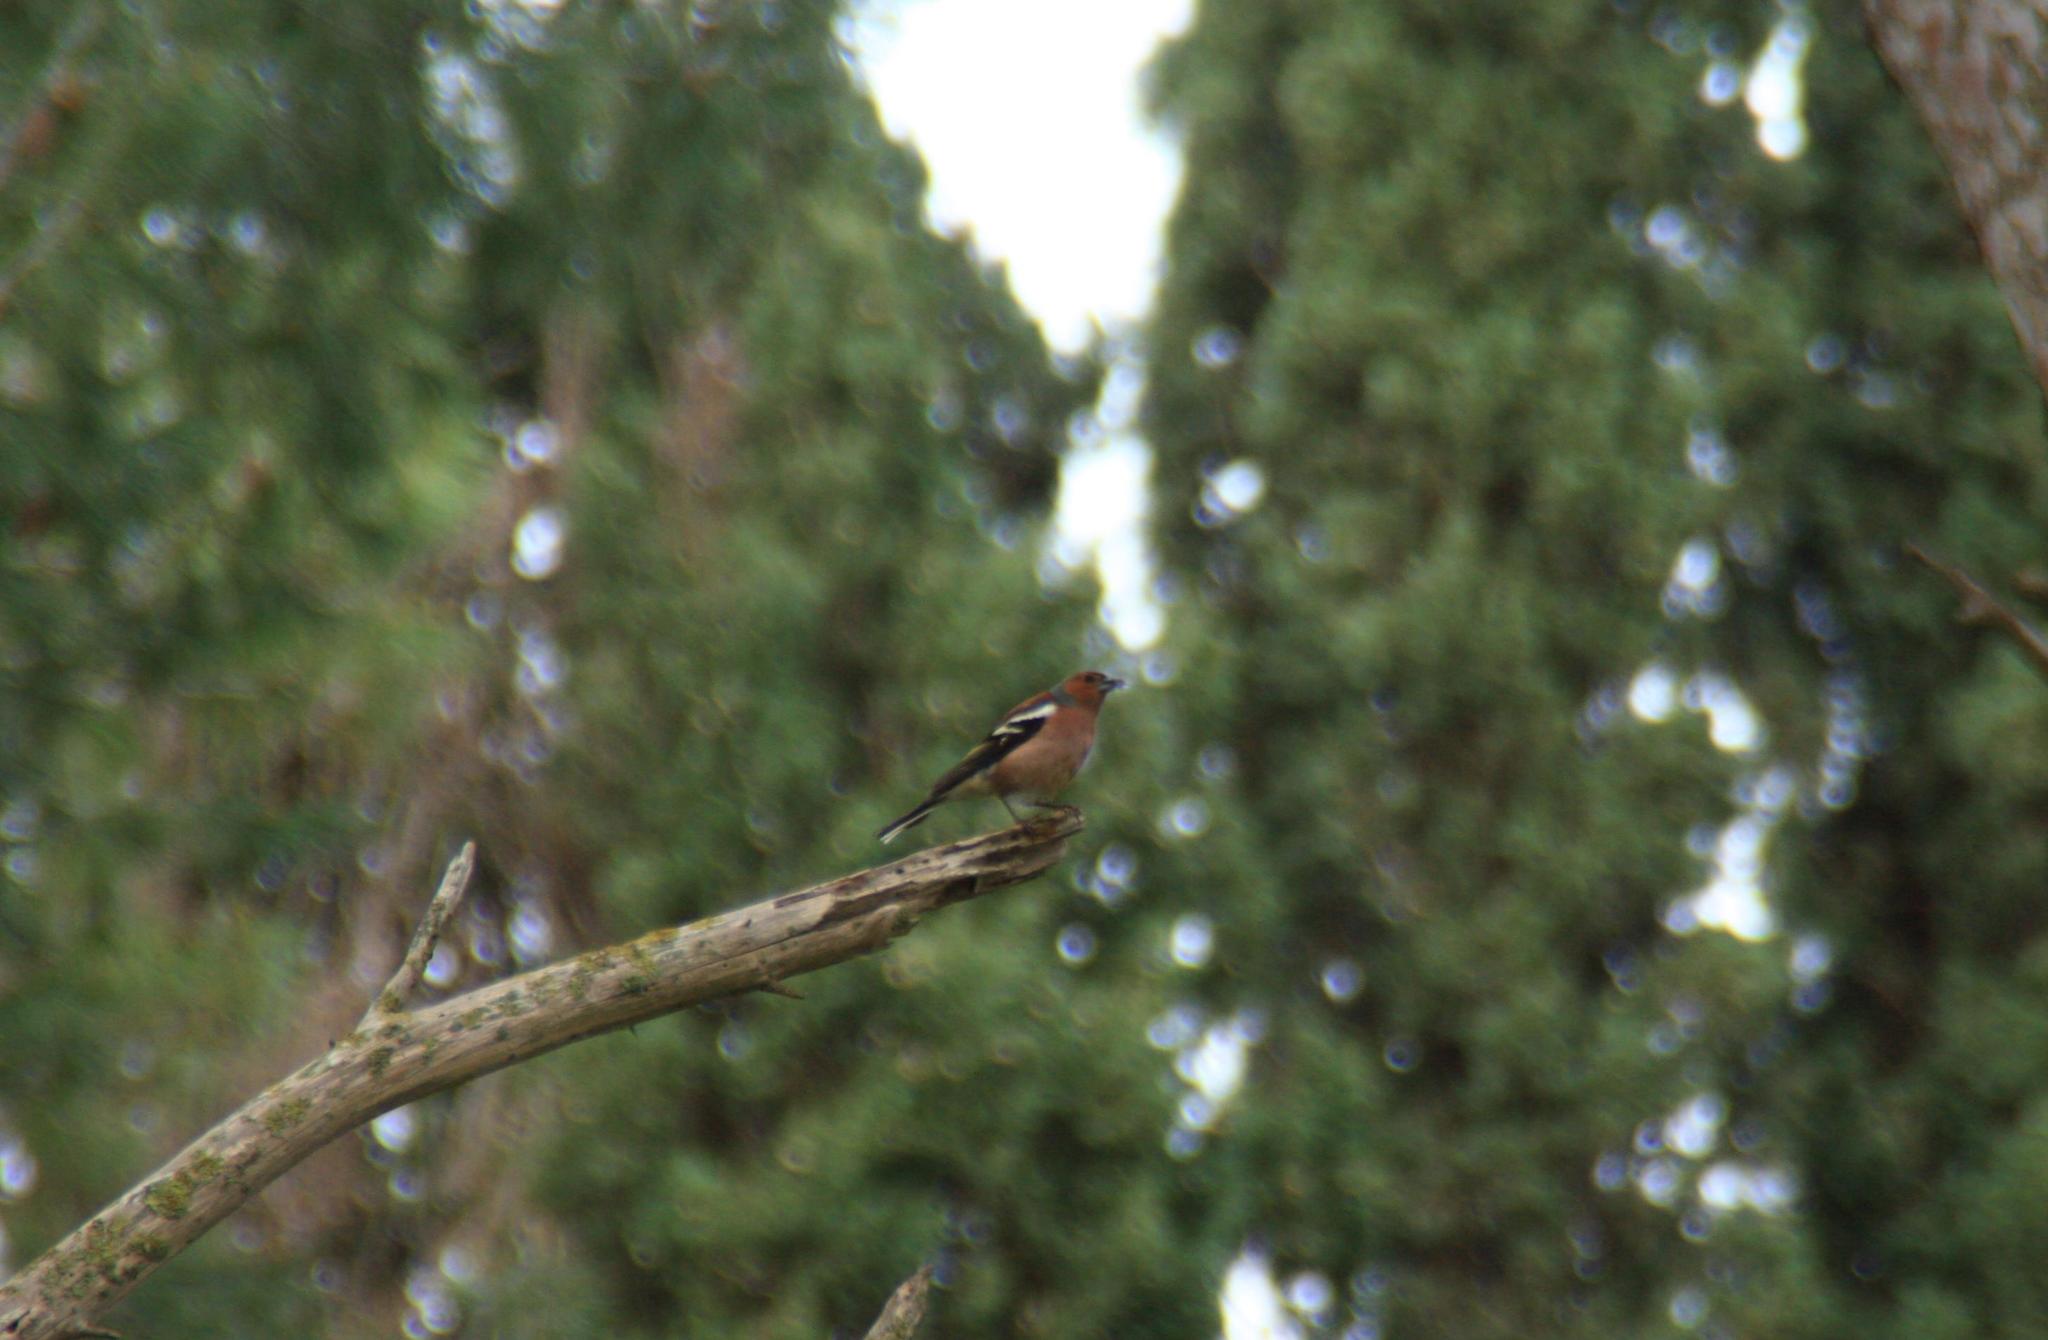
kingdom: Animalia
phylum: Chordata
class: Aves
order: Passeriformes
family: Fringillidae
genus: Fringilla
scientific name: Fringilla coelebs
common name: Common chaffinch
